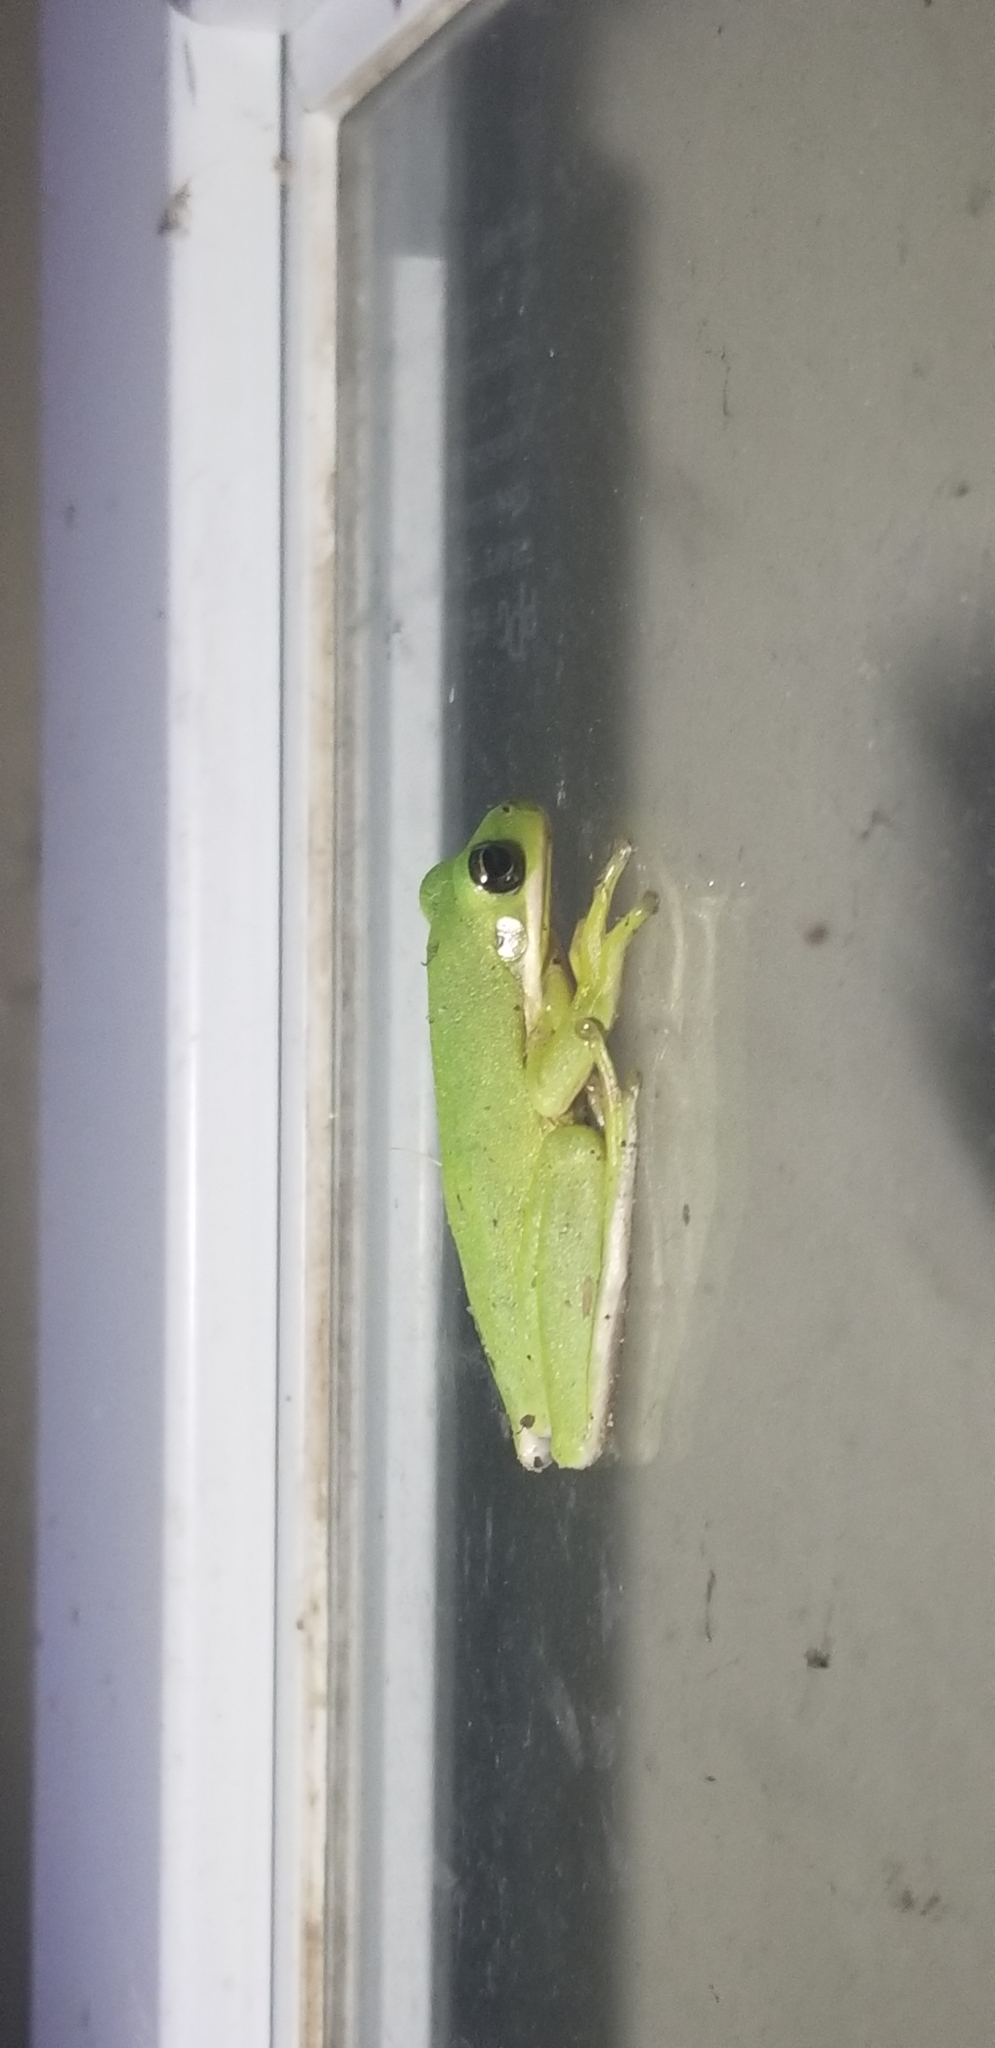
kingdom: Animalia
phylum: Chordata
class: Amphibia
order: Anura
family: Hylidae
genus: Dryophytes
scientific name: Dryophytes cinereus
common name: Green treefrog
